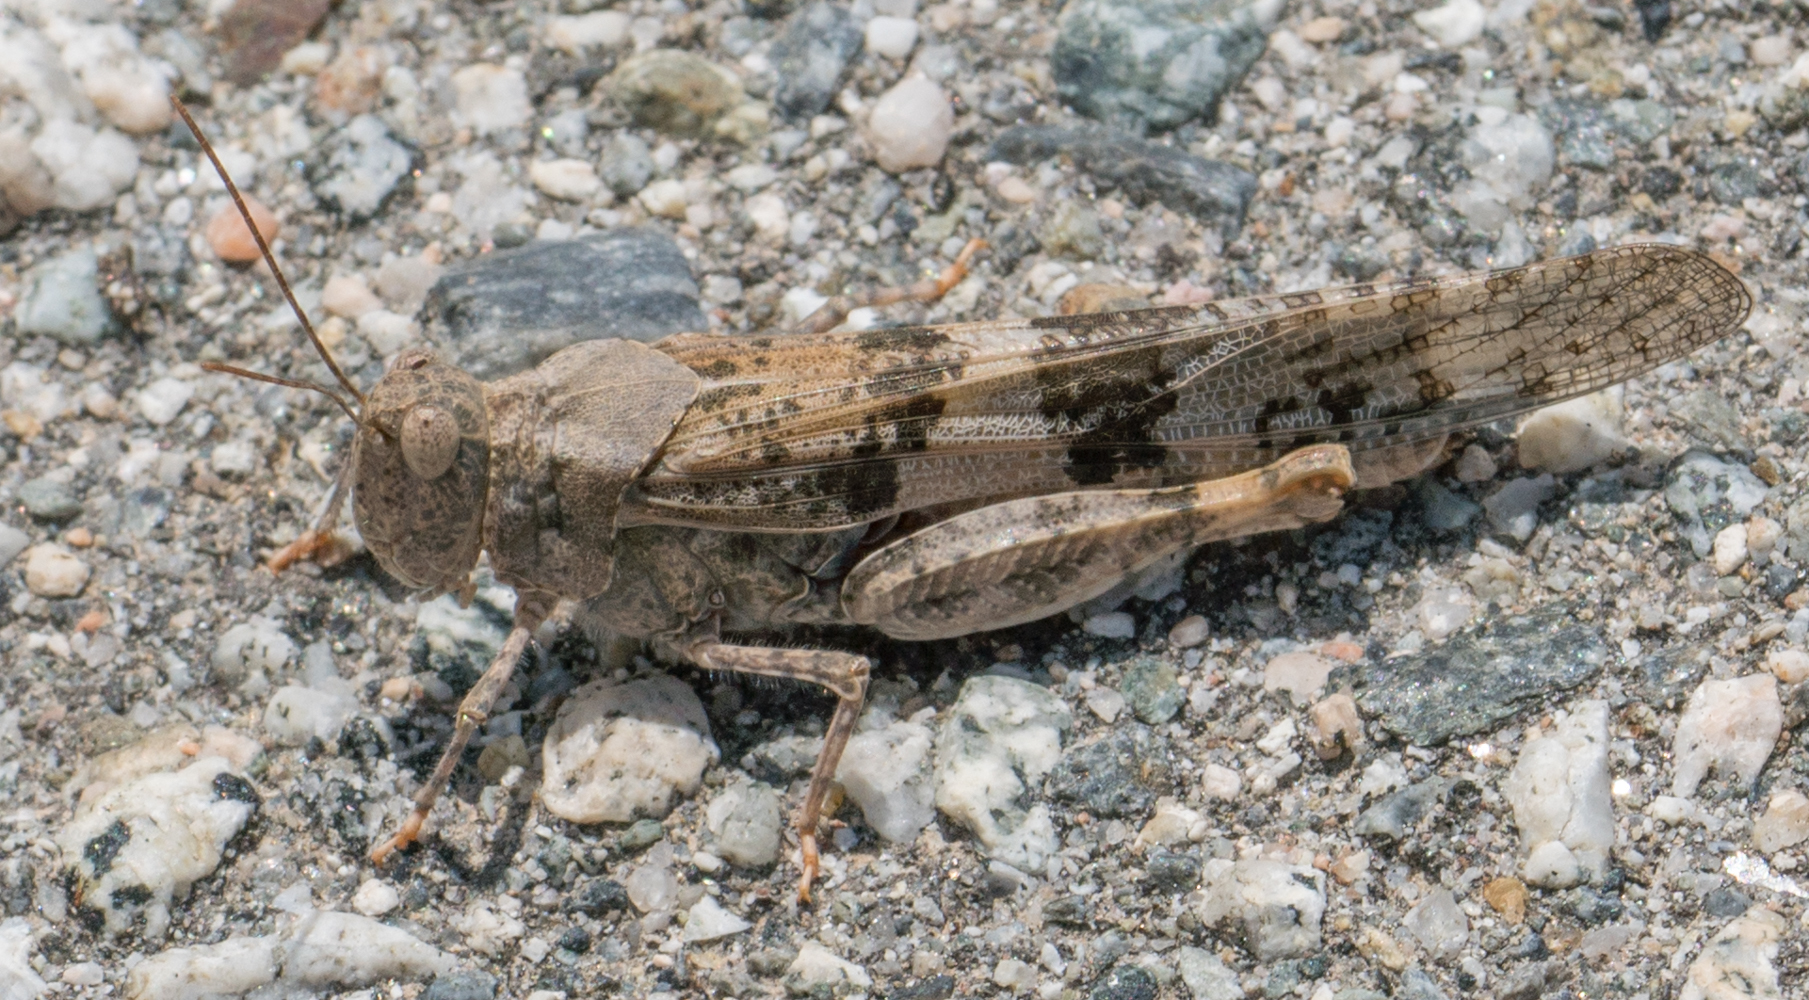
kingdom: Animalia
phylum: Arthropoda
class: Insecta
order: Orthoptera
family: Acrididae
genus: Trimerotropis
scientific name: Trimerotropis pallidipennis
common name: Pallid-winged grasshopper
